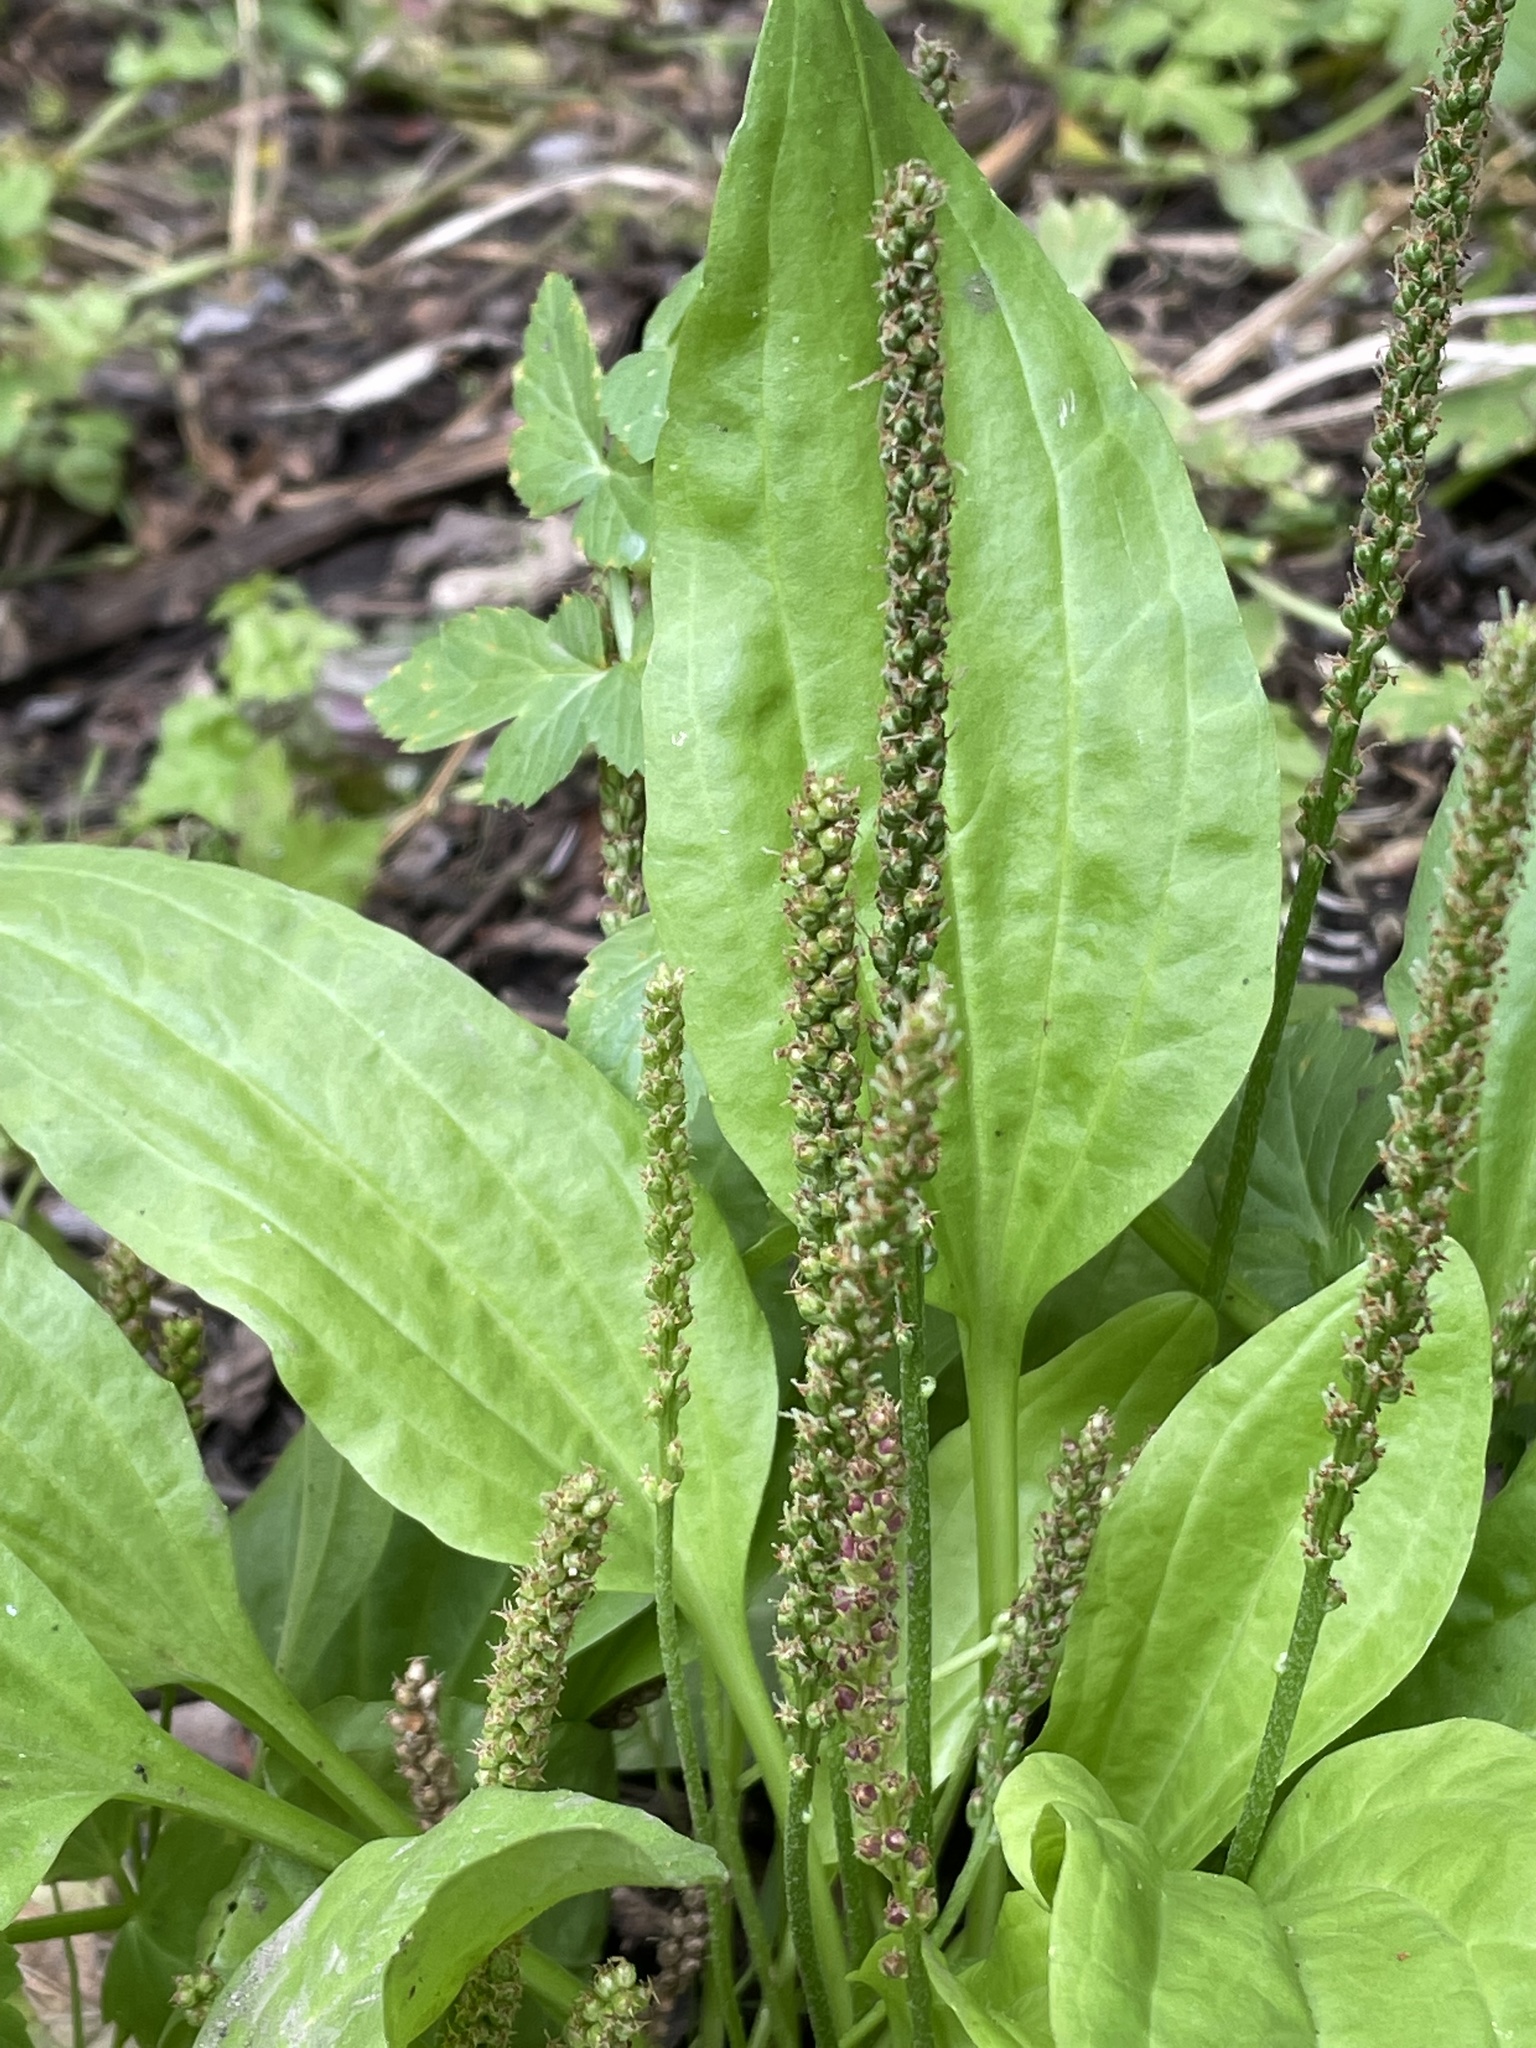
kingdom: Plantae
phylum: Tracheophyta
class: Magnoliopsida
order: Lamiales
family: Plantaginaceae
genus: Plantago
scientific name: Plantago major
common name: Common plantain
